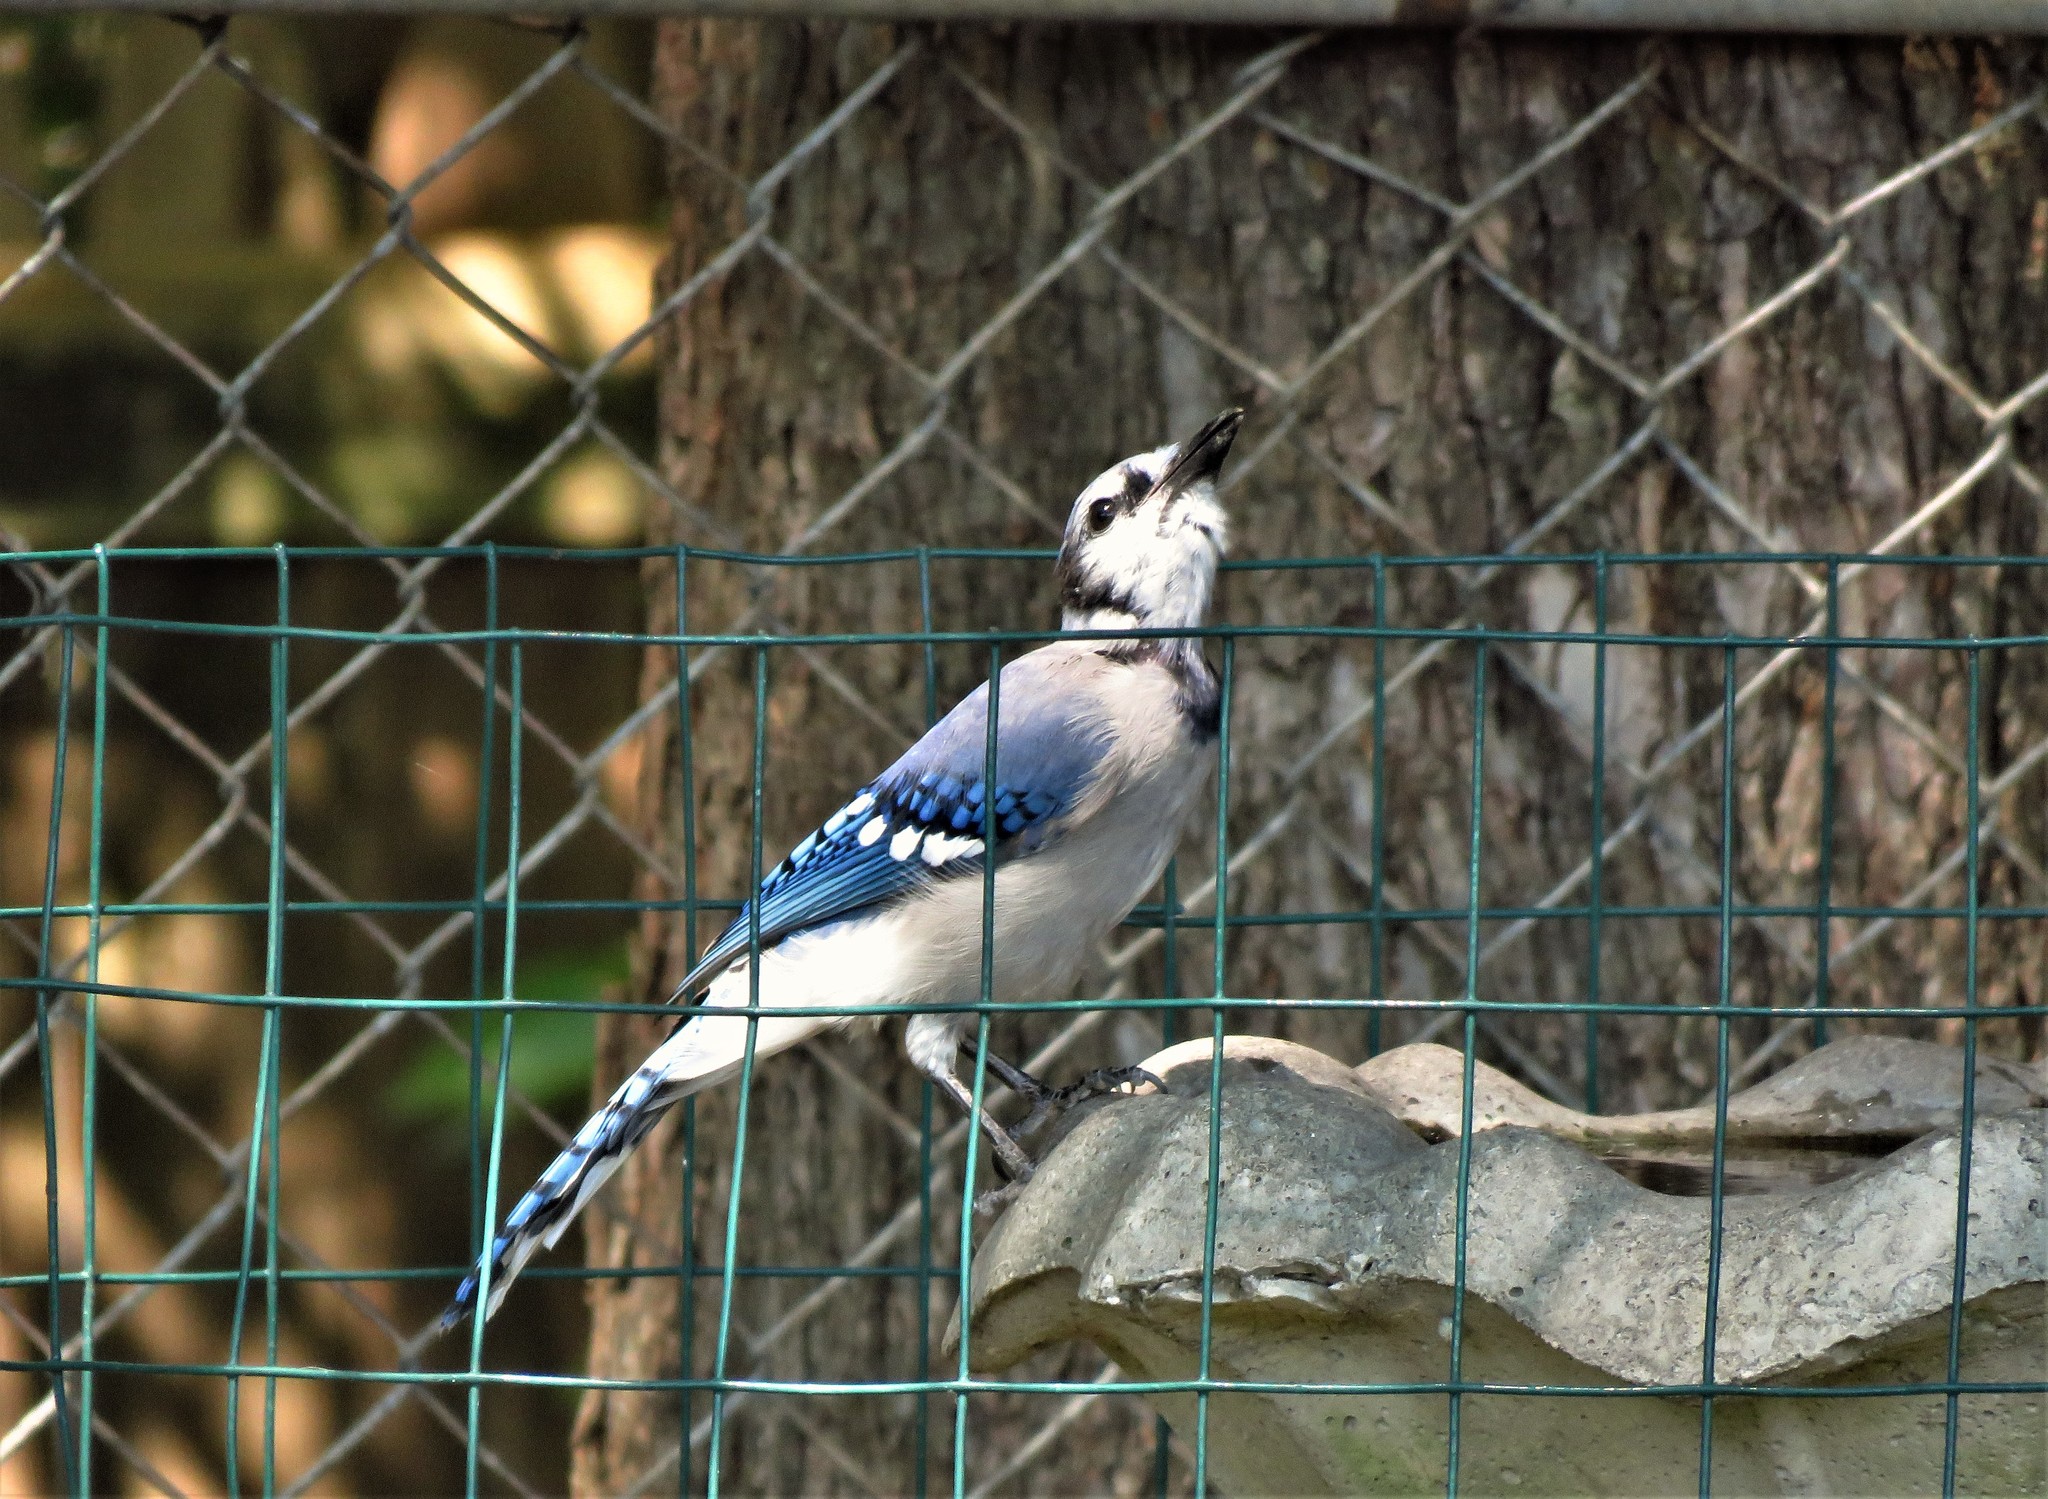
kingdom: Animalia
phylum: Chordata
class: Aves
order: Passeriformes
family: Corvidae
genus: Cyanocitta
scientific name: Cyanocitta cristata
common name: Blue jay
